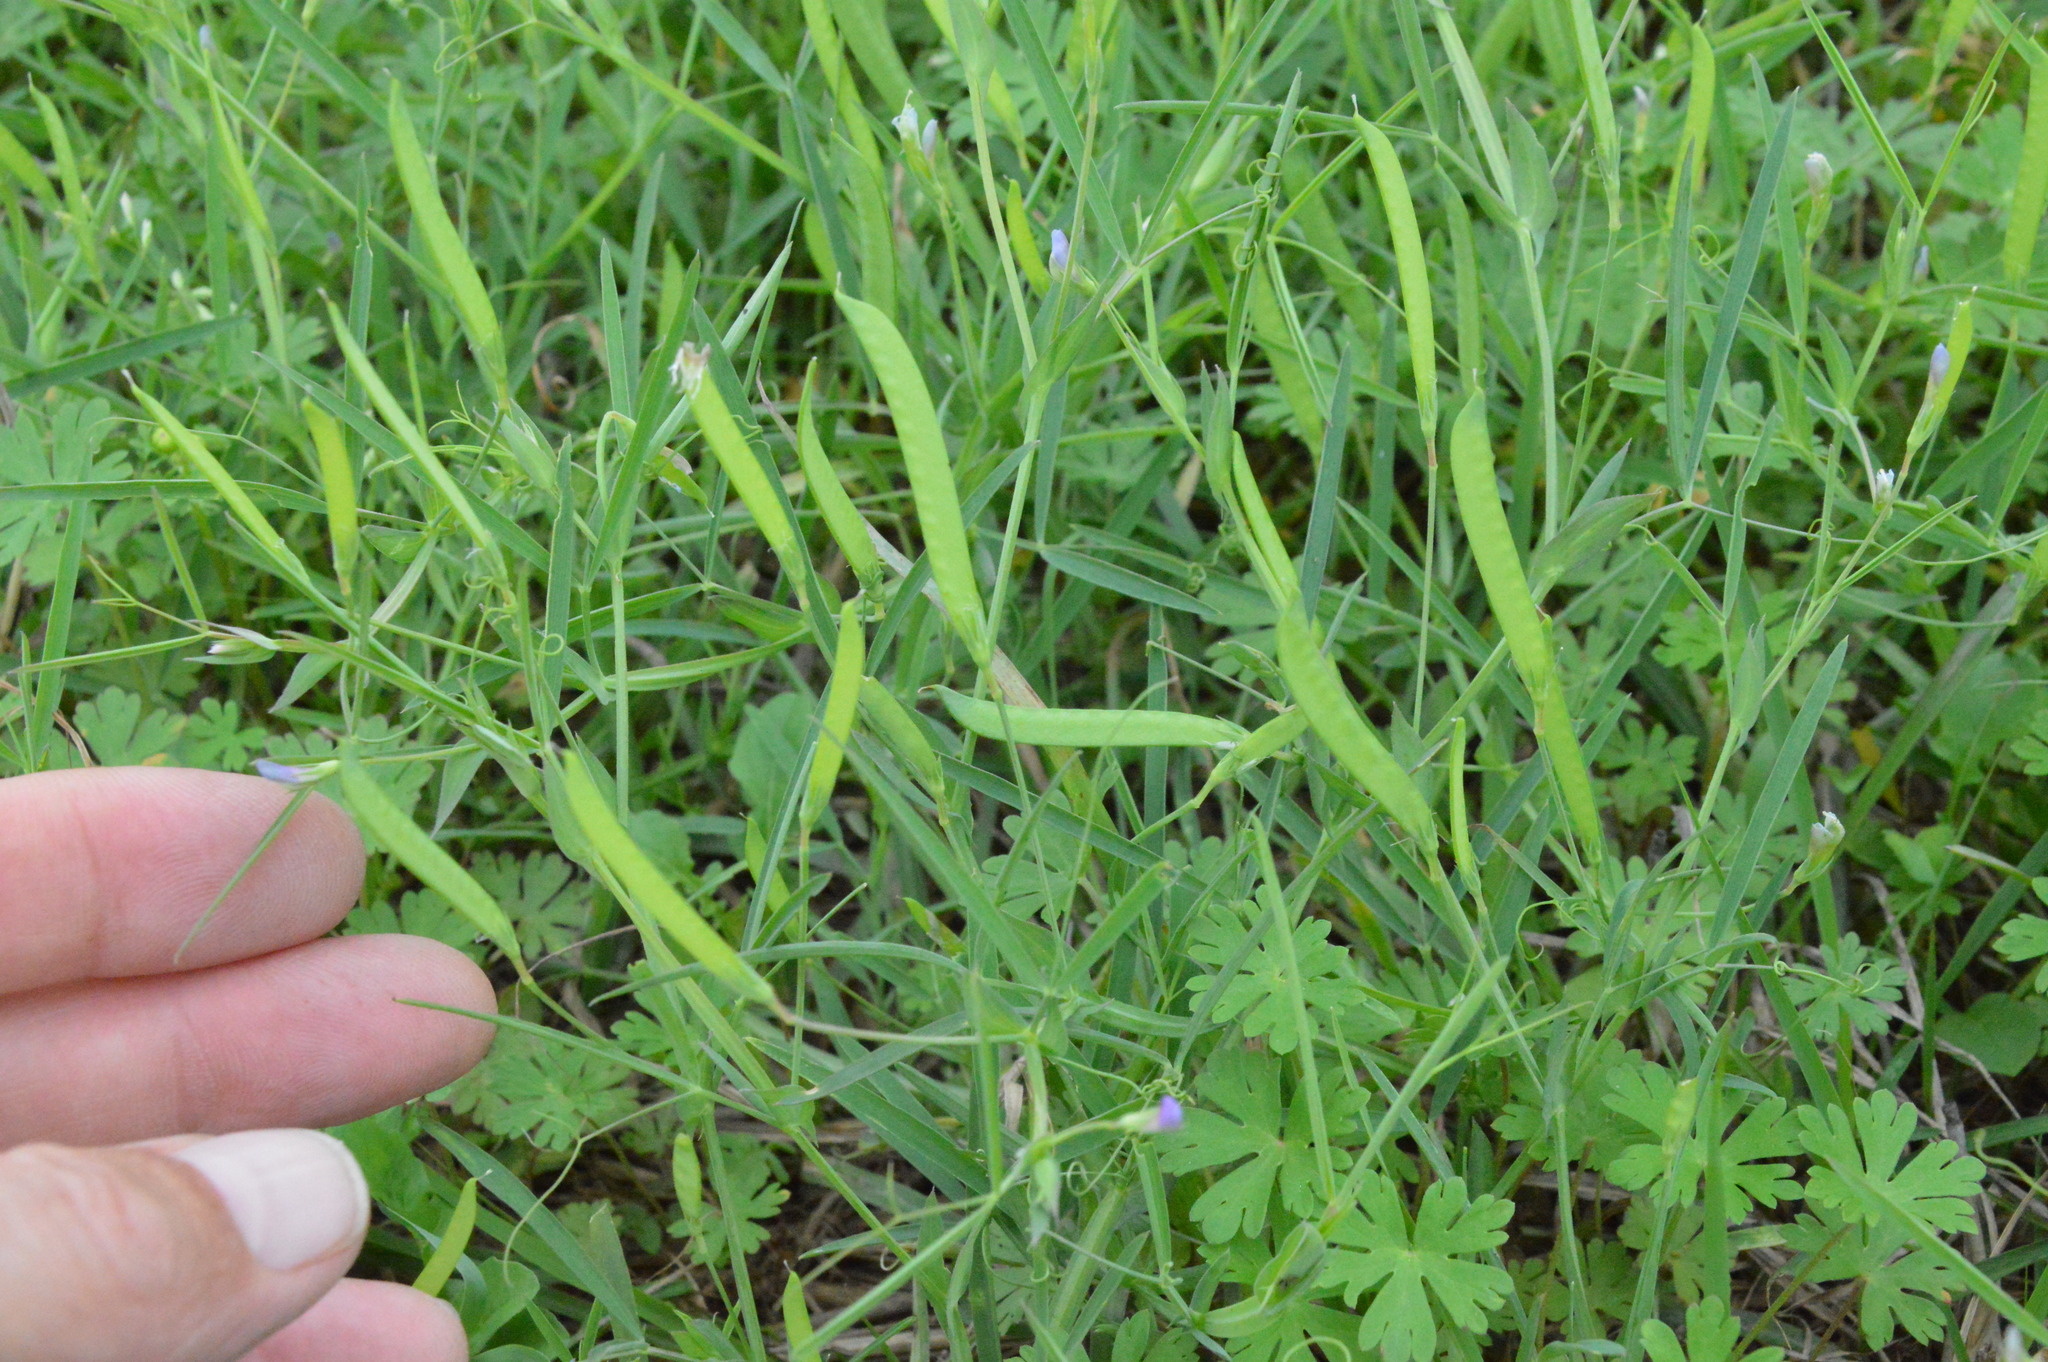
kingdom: Plantae
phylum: Tracheophyta
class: Magnoliopsida
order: Fabales
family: Fabaceae
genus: Lathyrus
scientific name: Lathyrus pusillus
